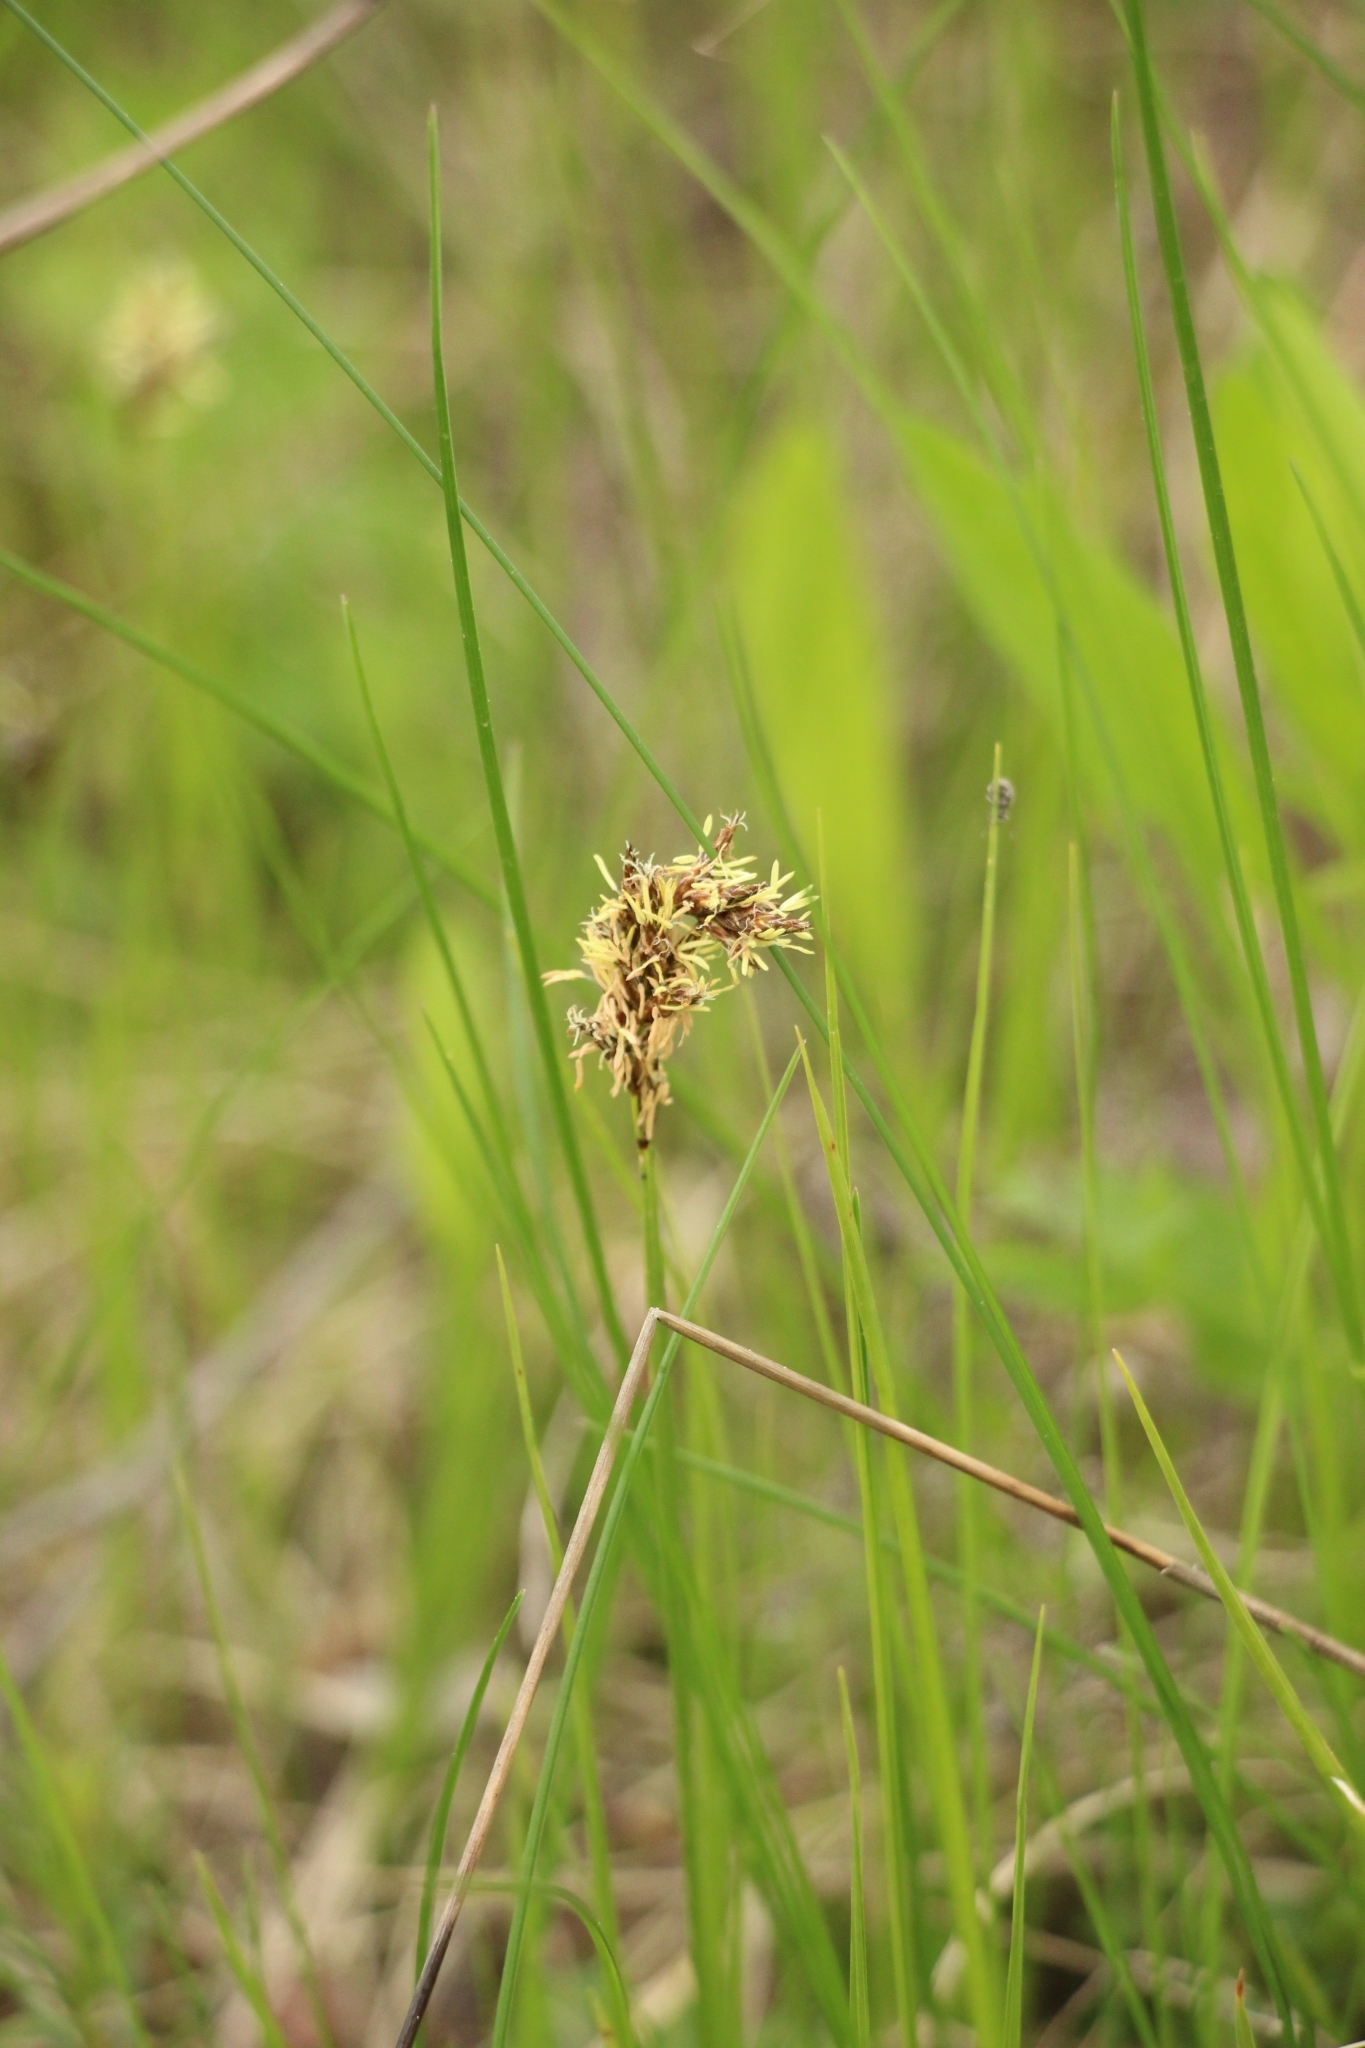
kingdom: Plantae
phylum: Tracheophyta
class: Liliopsida
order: Poales
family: Cyperaceae
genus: Carex
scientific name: Carex praecox
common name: Early sedge
